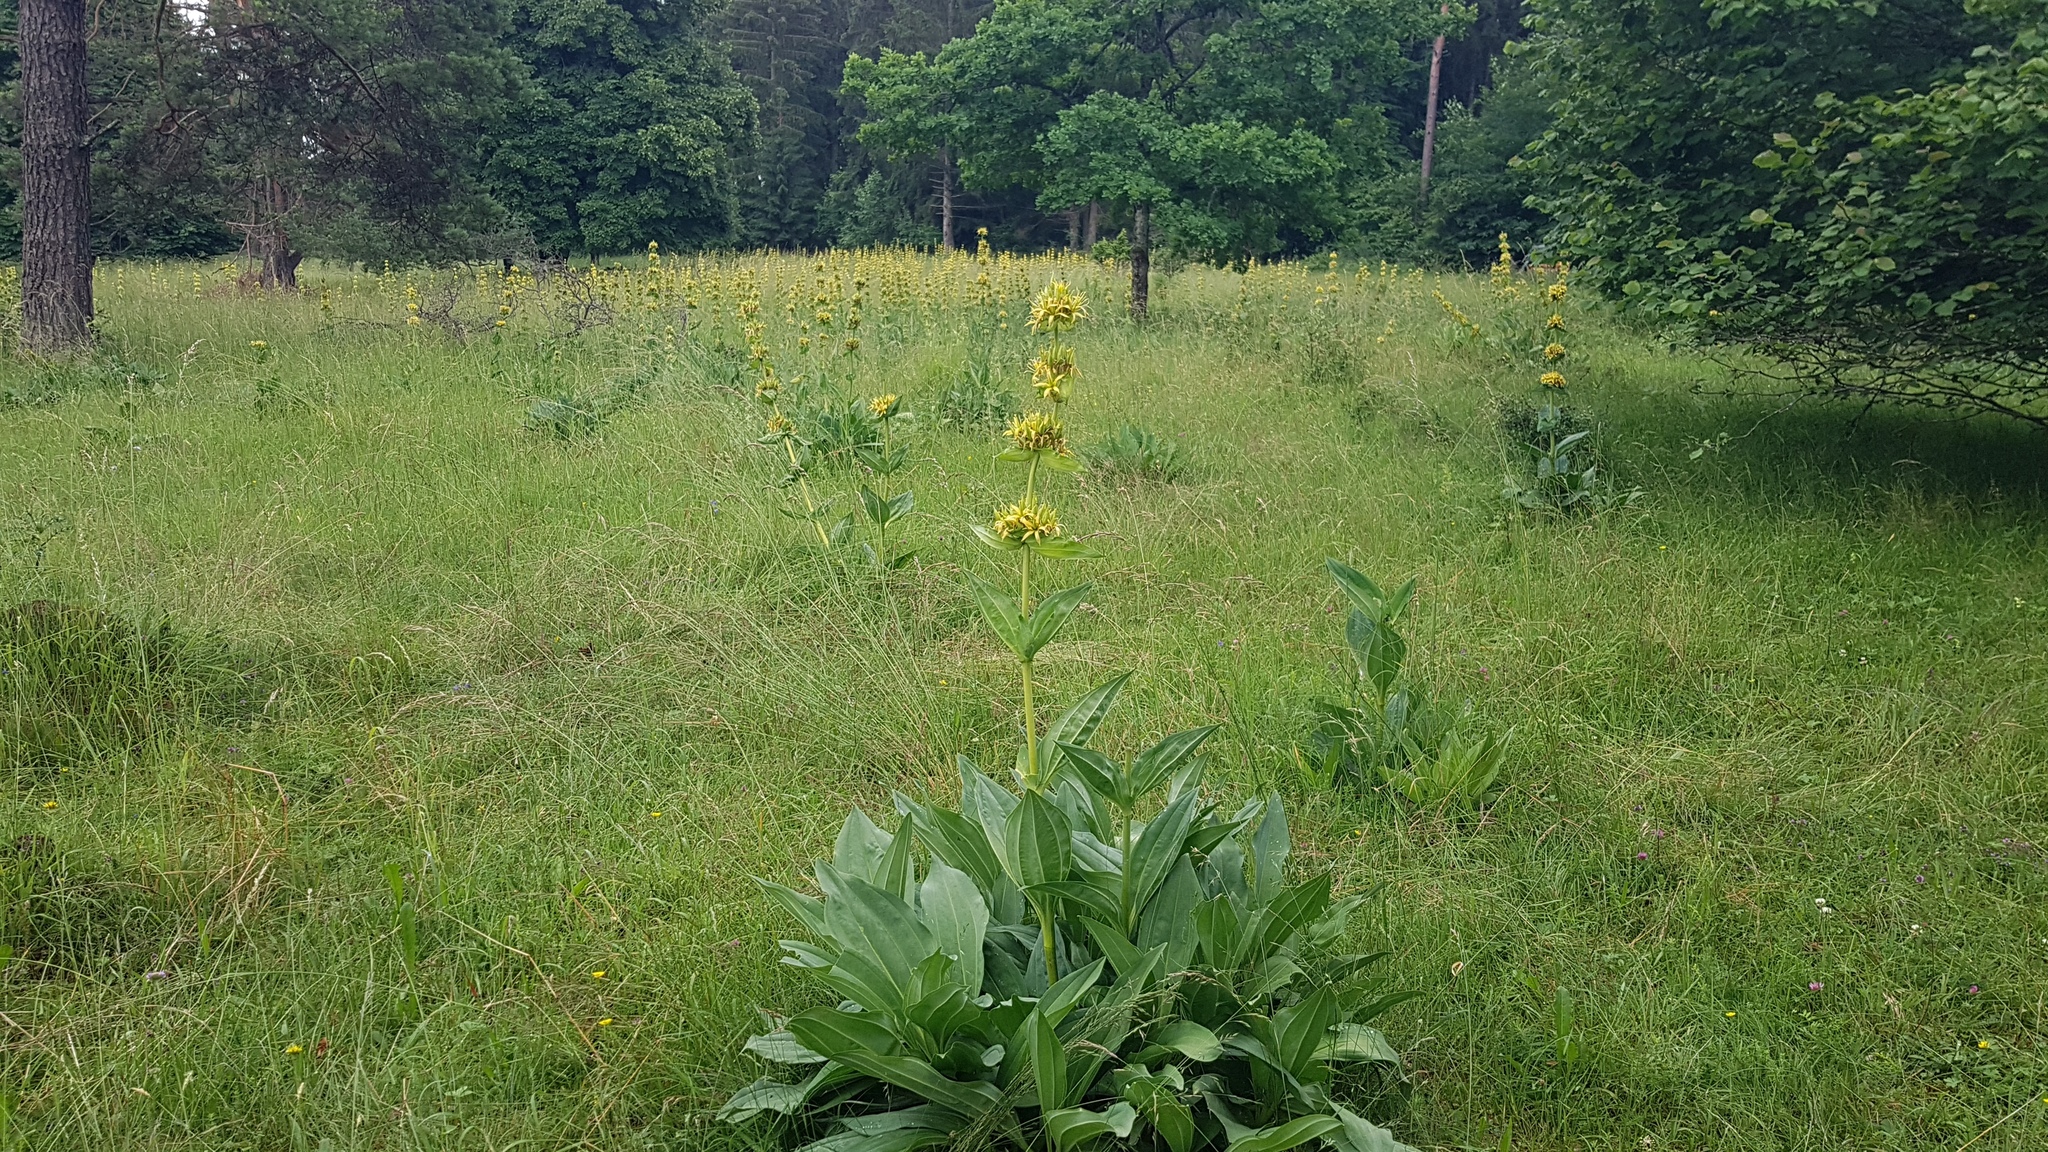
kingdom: Plantae
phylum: Tracheophyta
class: Magnoliopsida
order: Gentianales
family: Gentianaceae
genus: Gentiana
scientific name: Gentiana lutea
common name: Great yellow gentian
